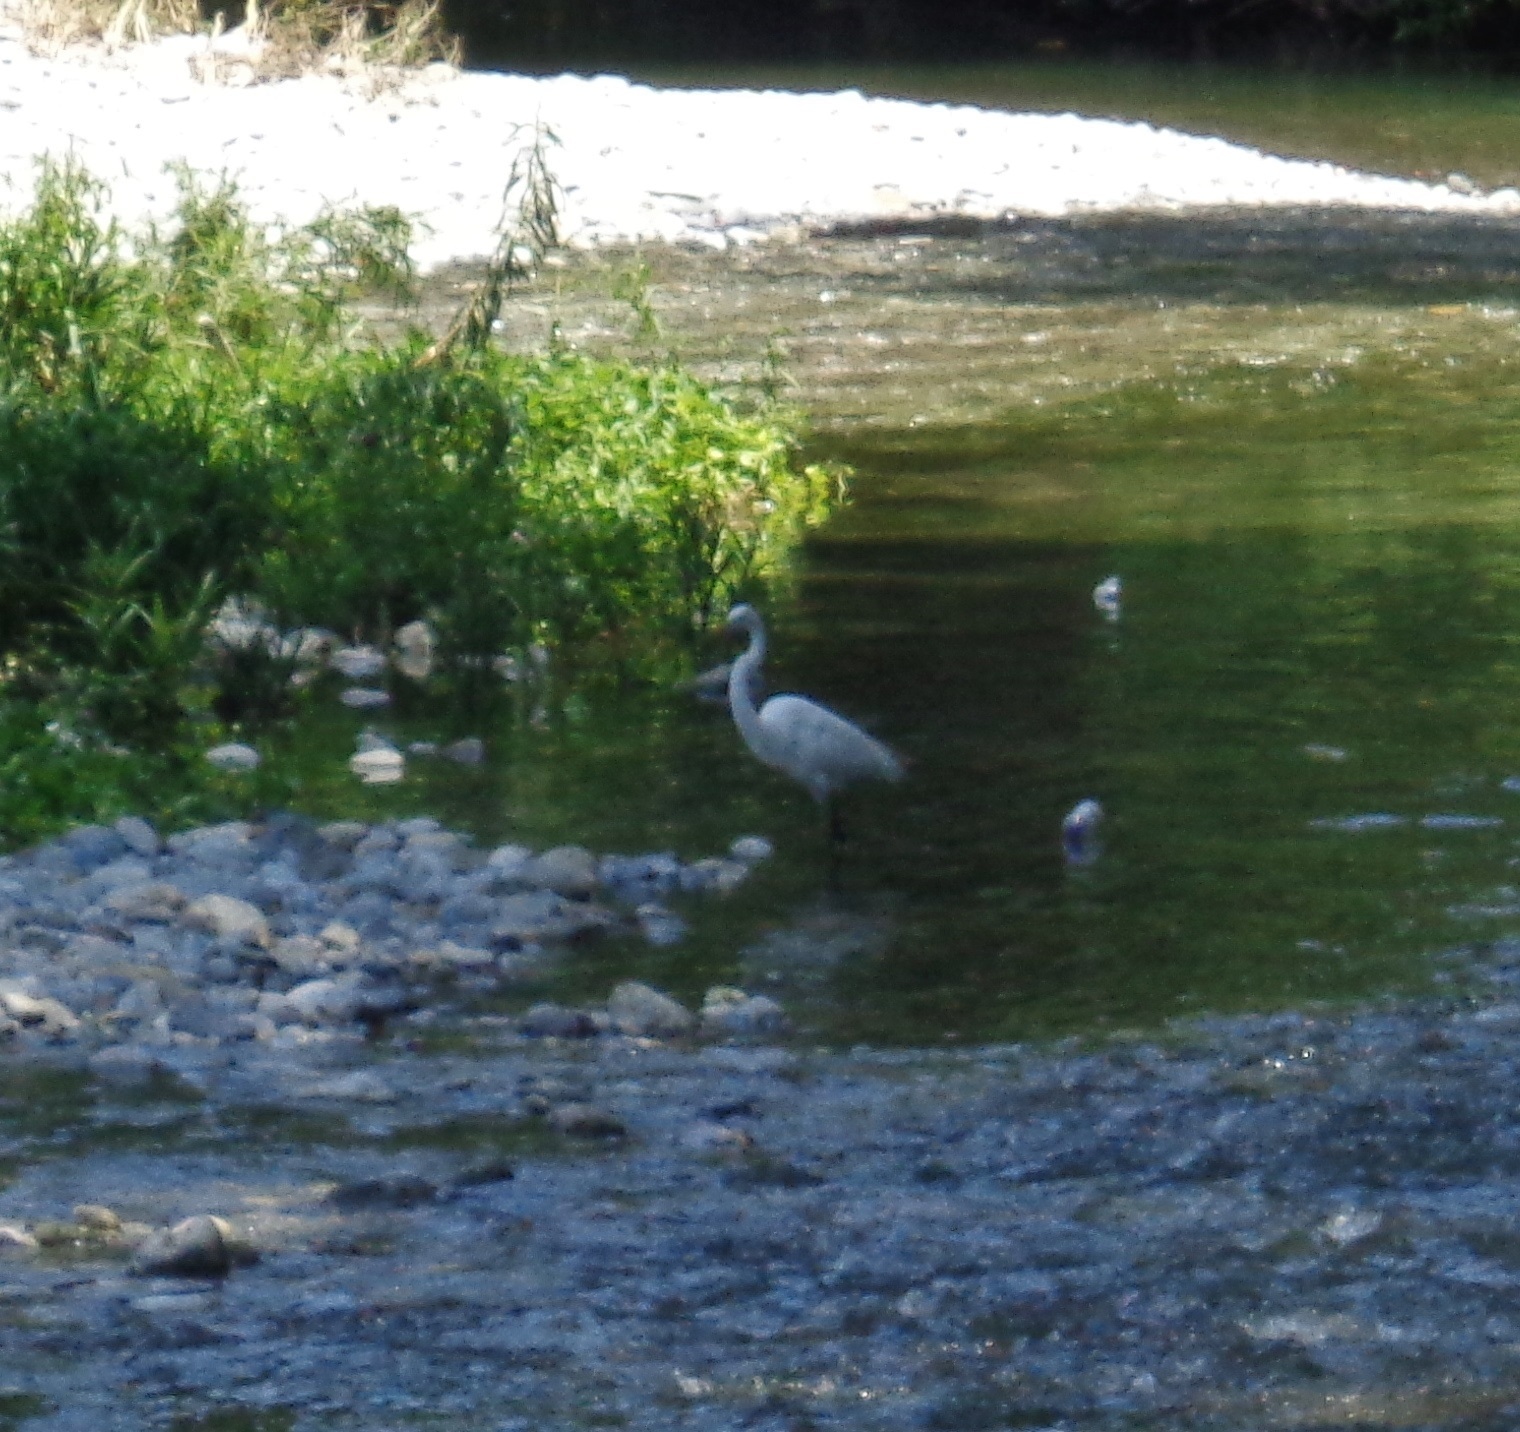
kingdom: Animalia
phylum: Chordata
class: Aves
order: Pelecaniformes
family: Ardeidae
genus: Ardea
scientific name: Ardea alba
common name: Great egret
